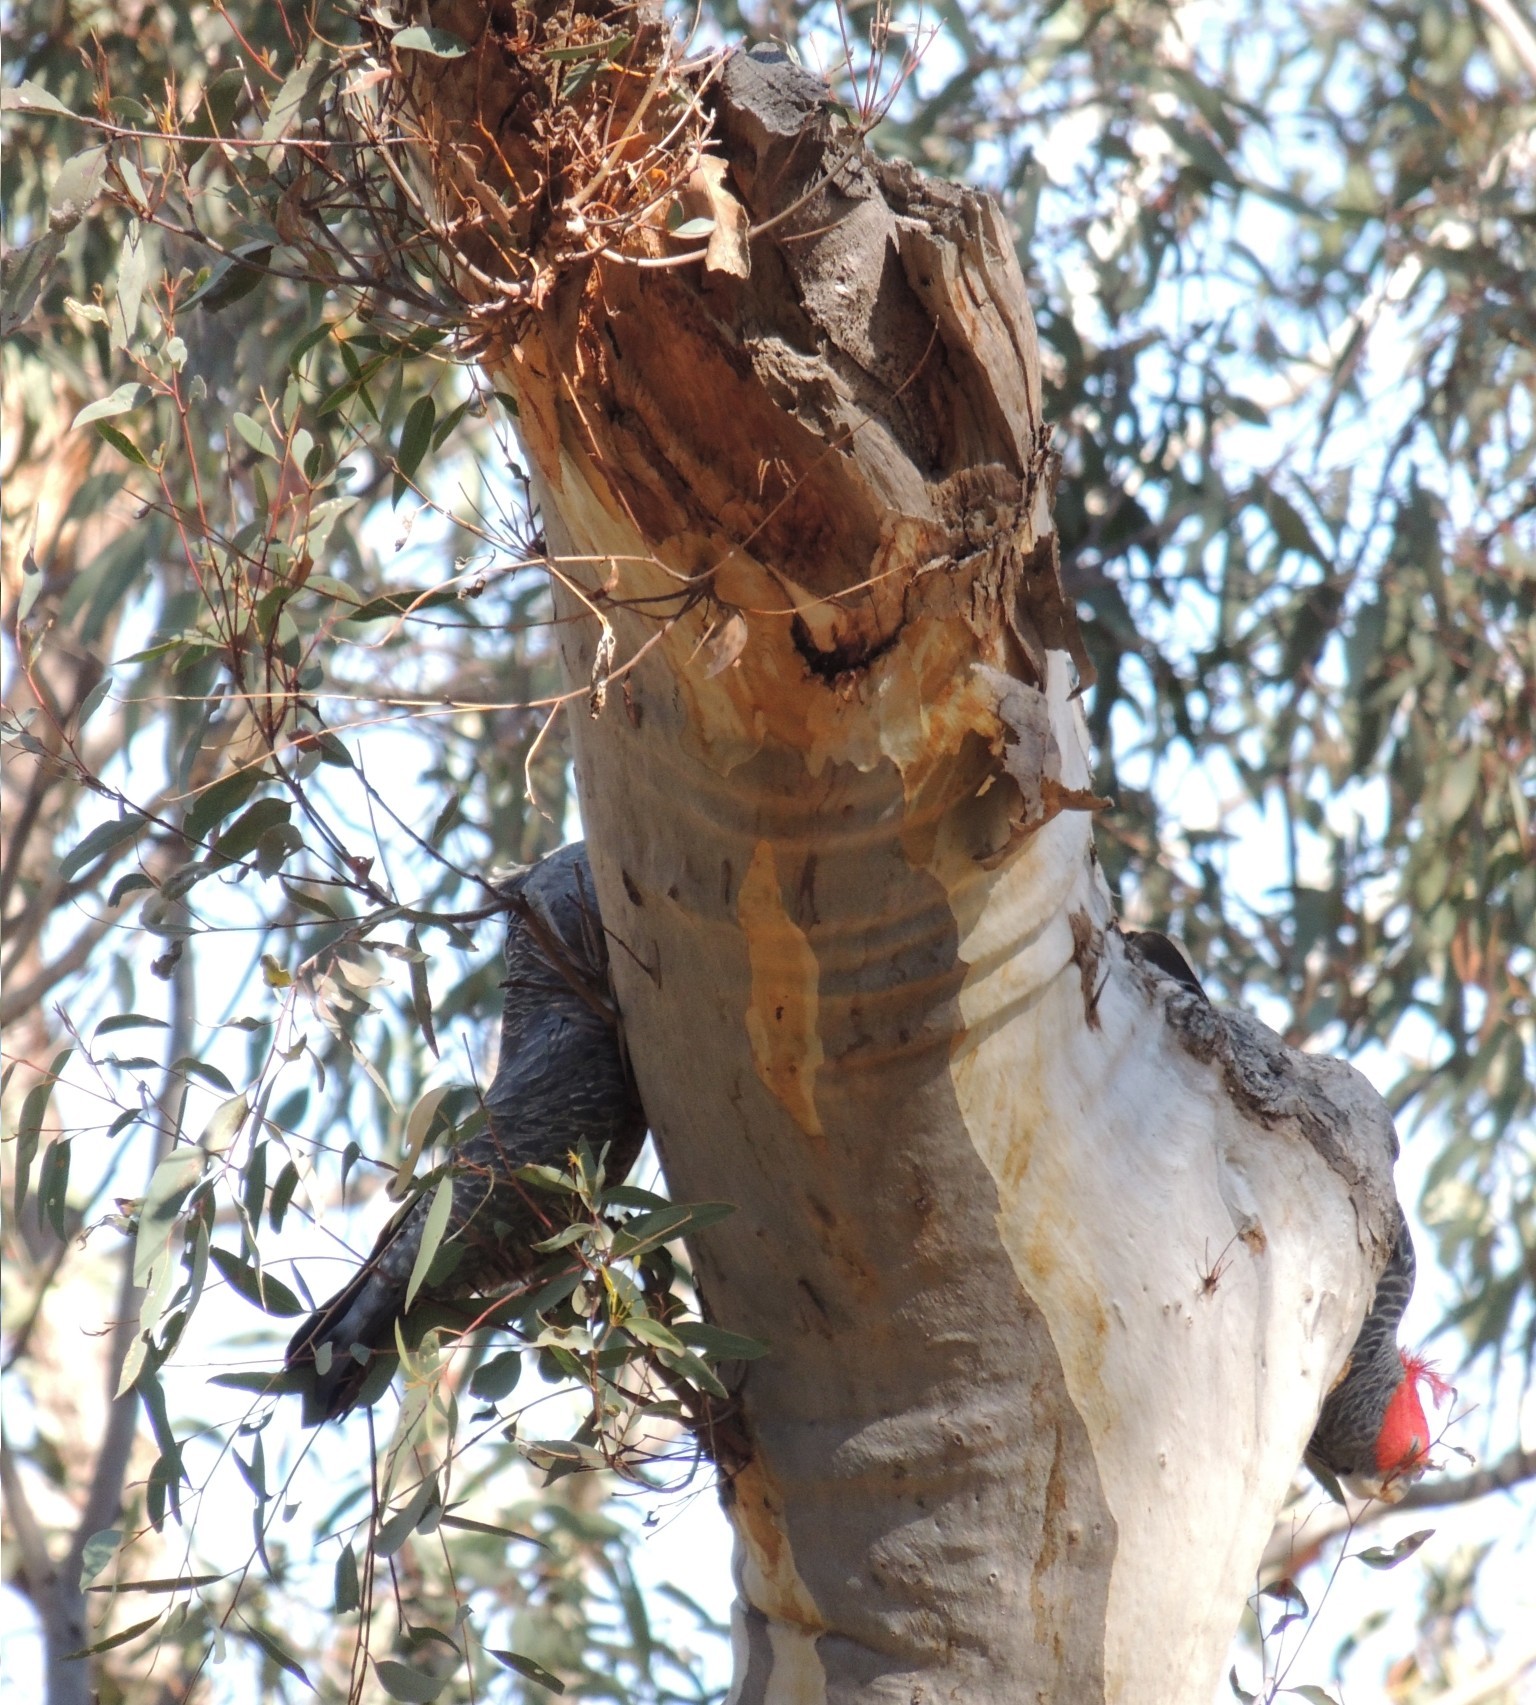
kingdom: Animalia
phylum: Chordata
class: Aves
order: Psittaciformes
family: Psittacidae
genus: Callocephalon
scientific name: Callocephalon fimbriatum
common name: Gang-gang cockatoo
